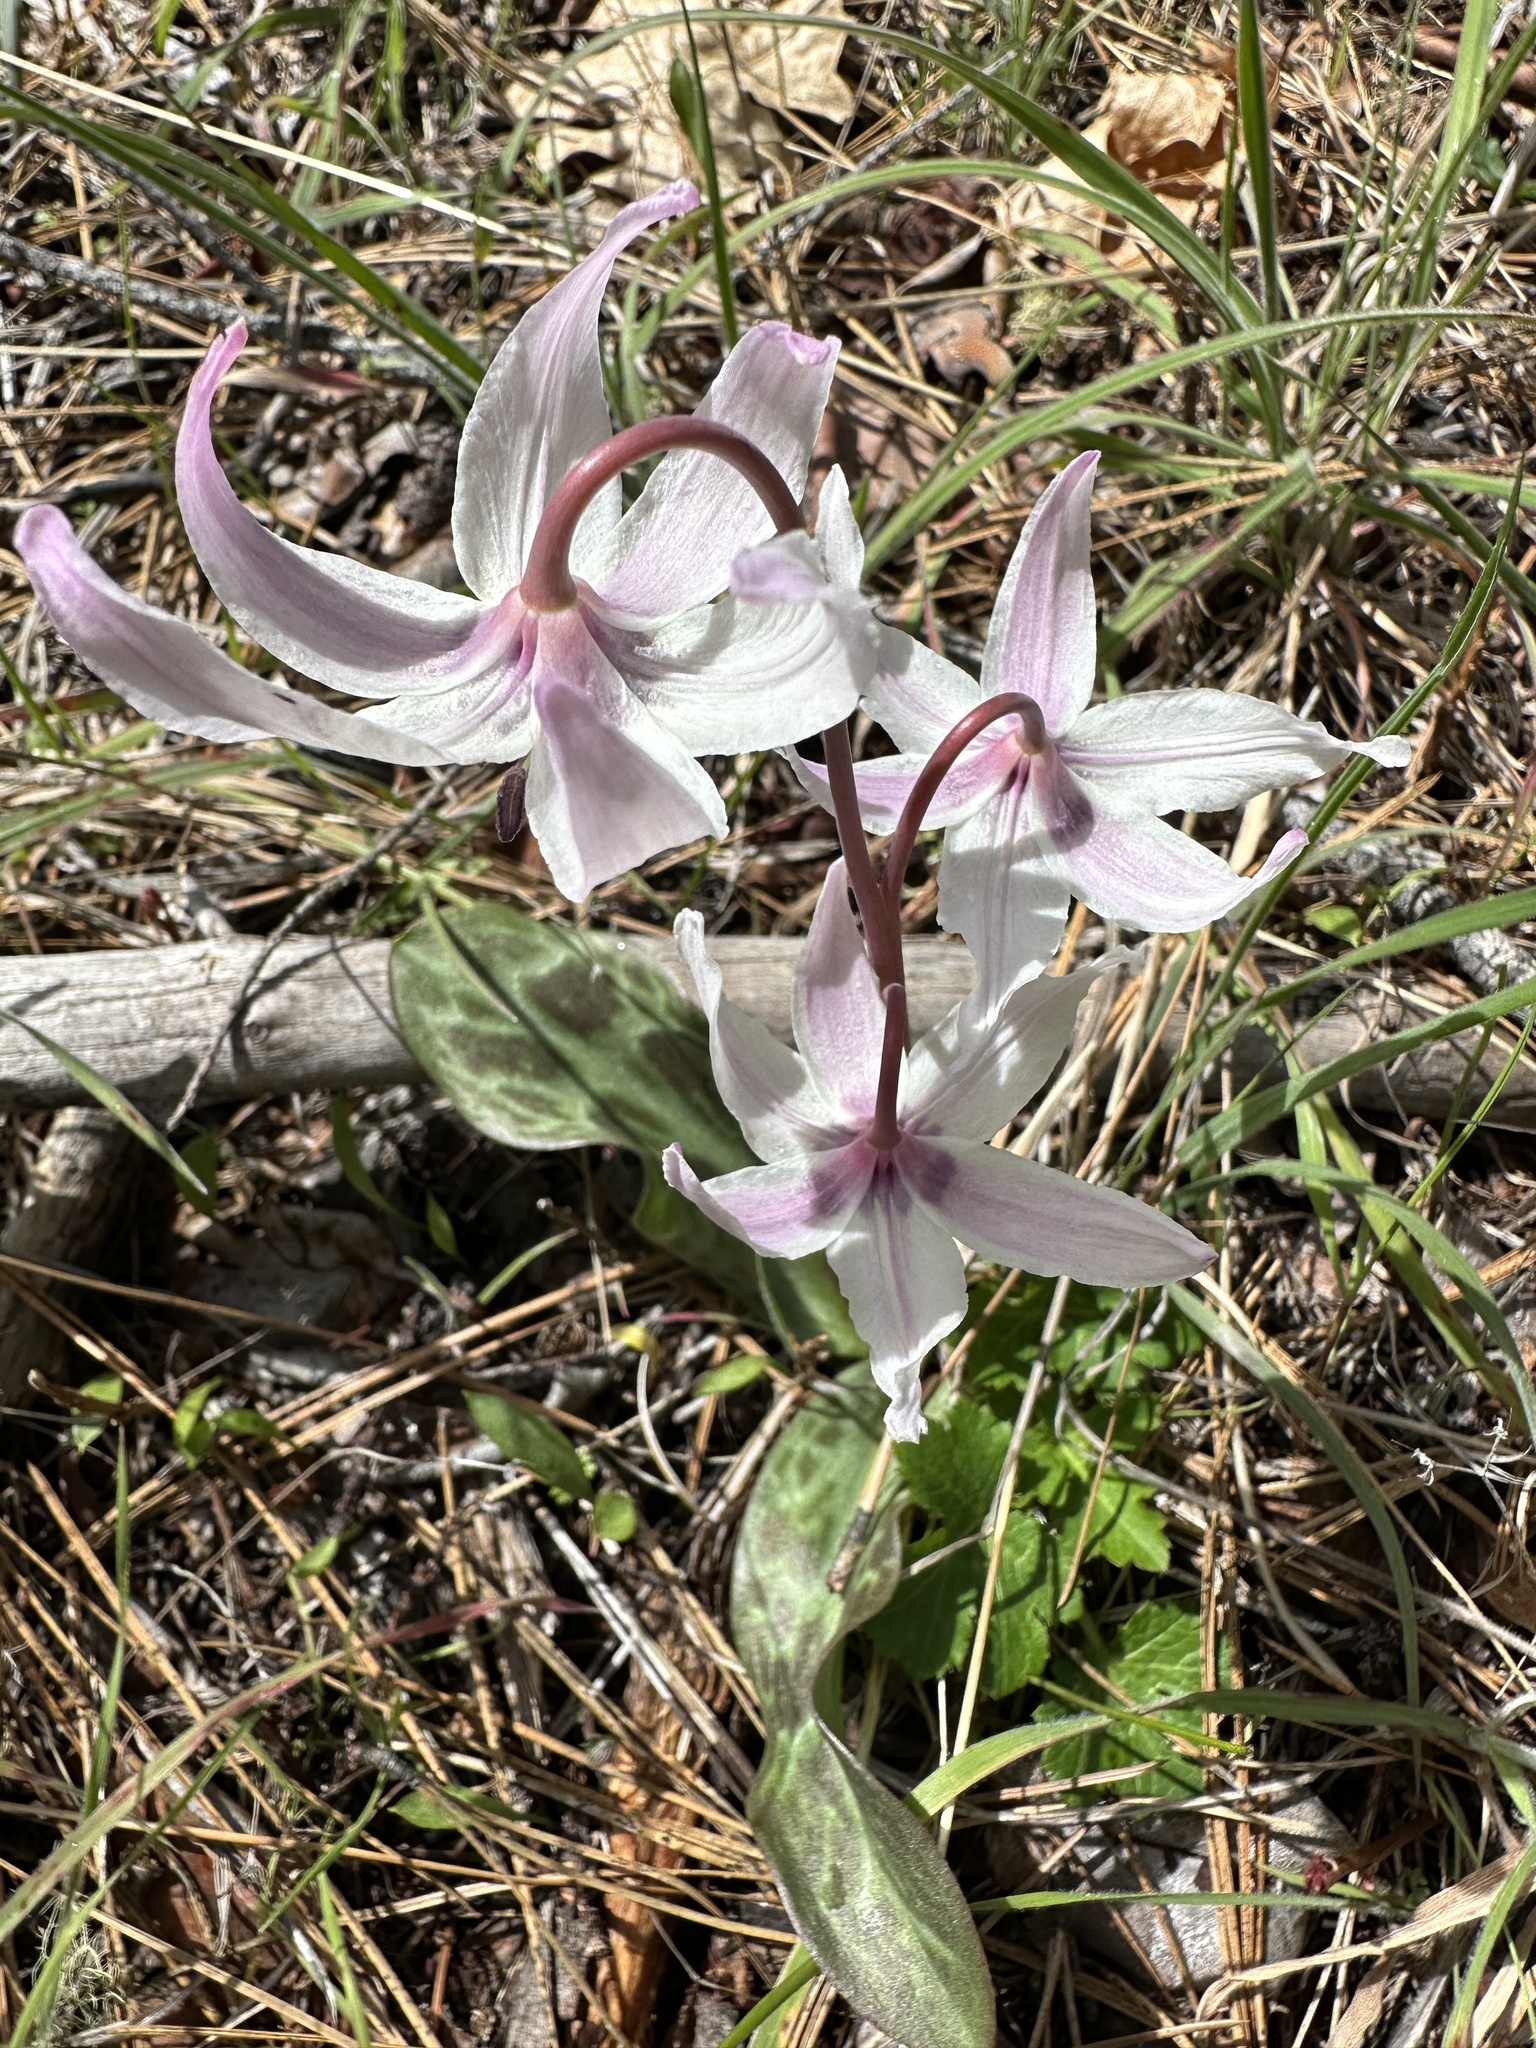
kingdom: Plantae
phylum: Tracheophyta
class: Liliopsida
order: Liliales
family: Liliaceae
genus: Erythronium
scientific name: Erythronium hendersonii
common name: Henderson's fawn-lily
